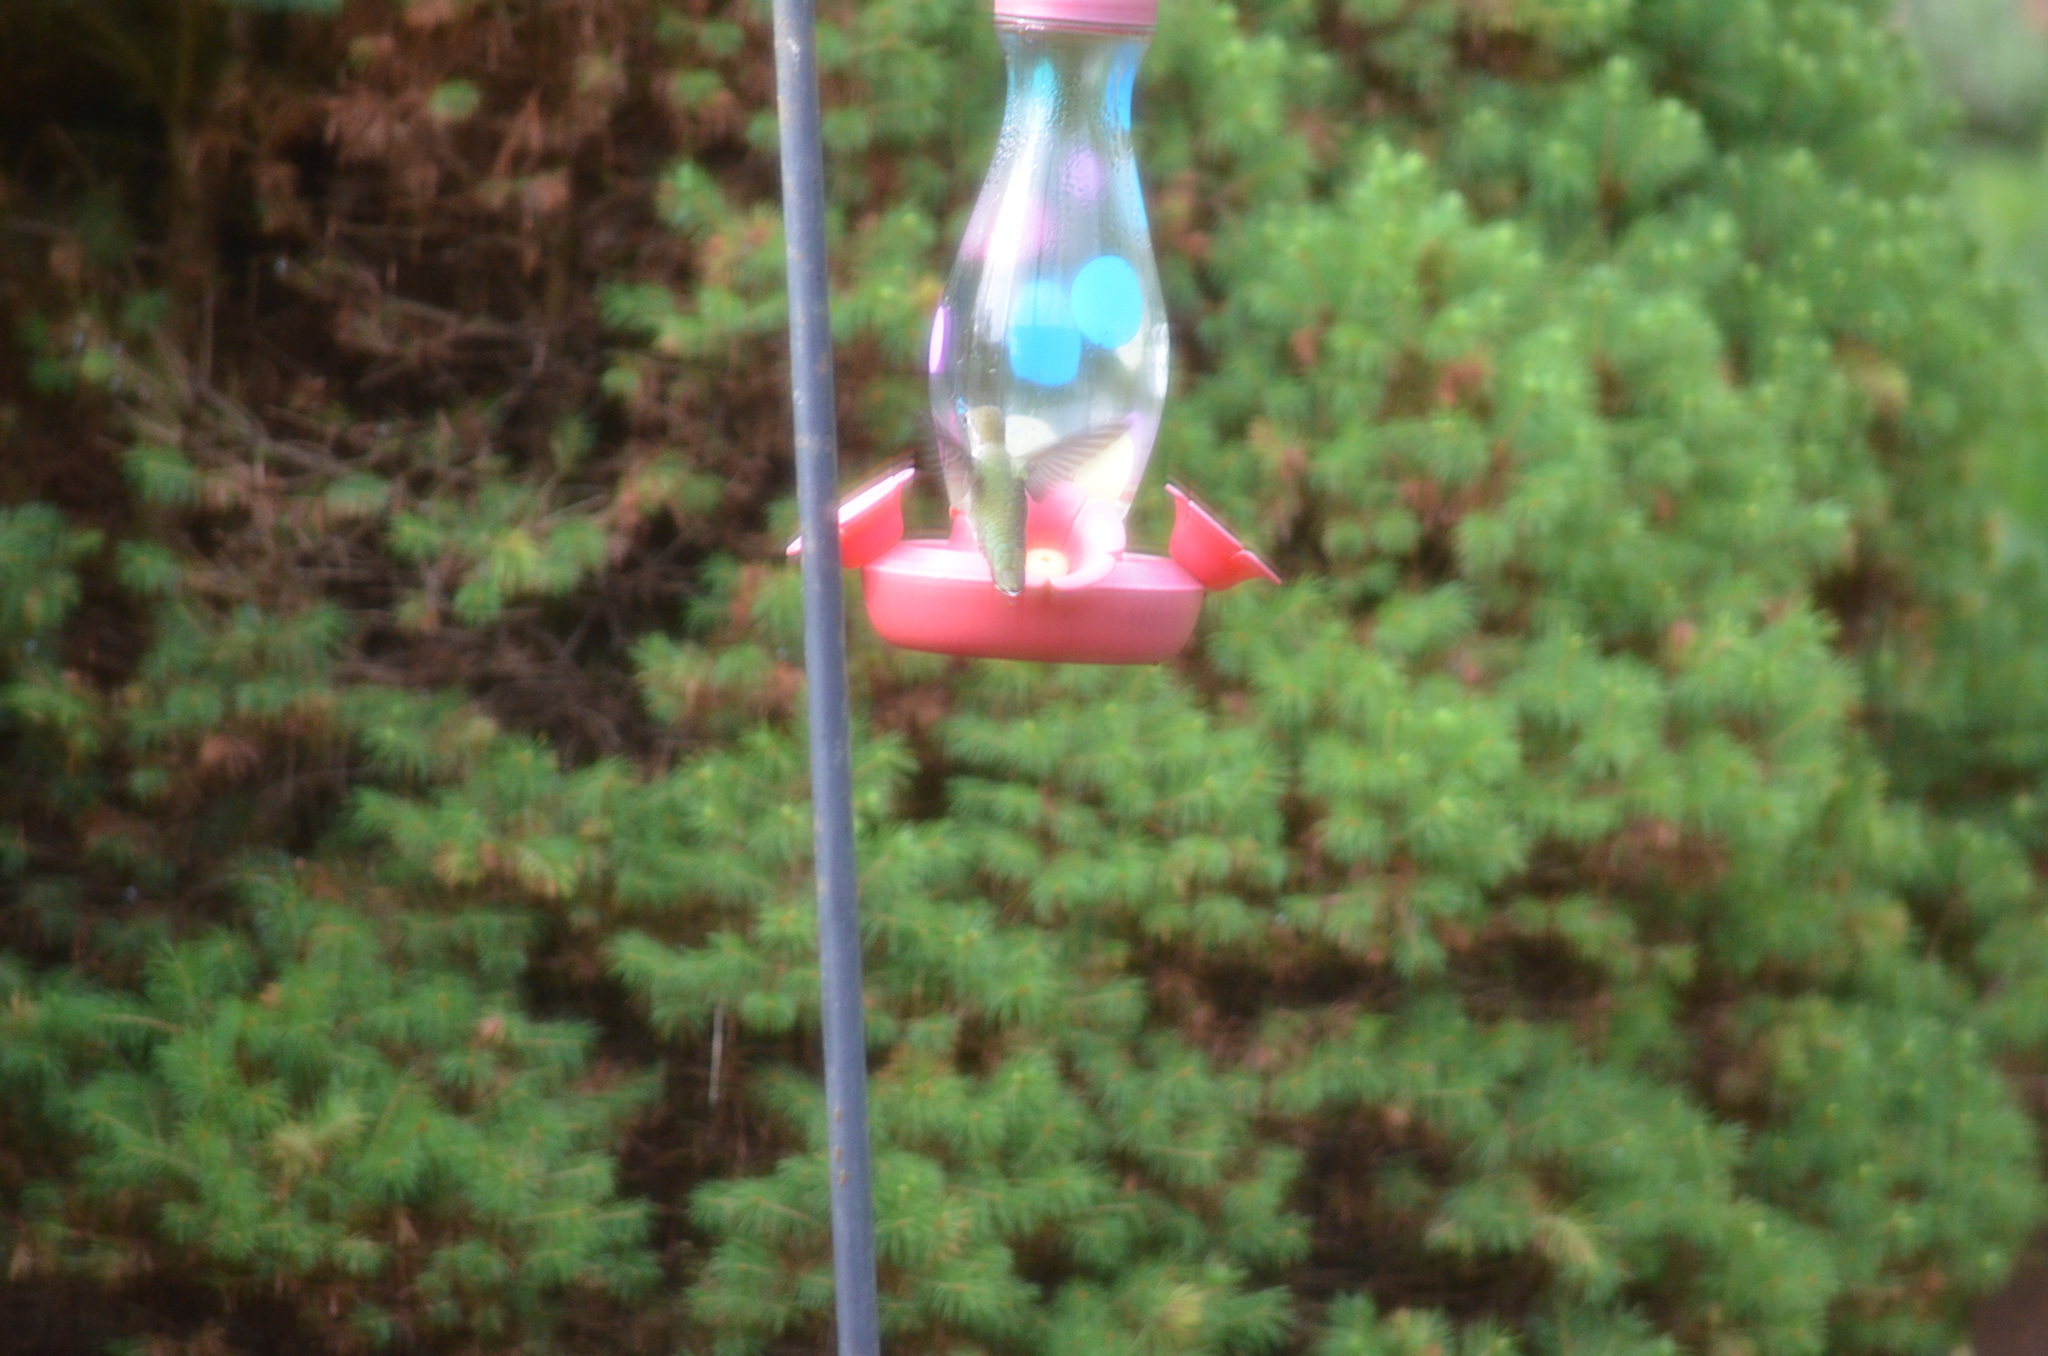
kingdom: Animalia
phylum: Chordata
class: Aves
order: Apodiformes
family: Trochilidae
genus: Calypte
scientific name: Calypte anna
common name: Anna's hummingbird
